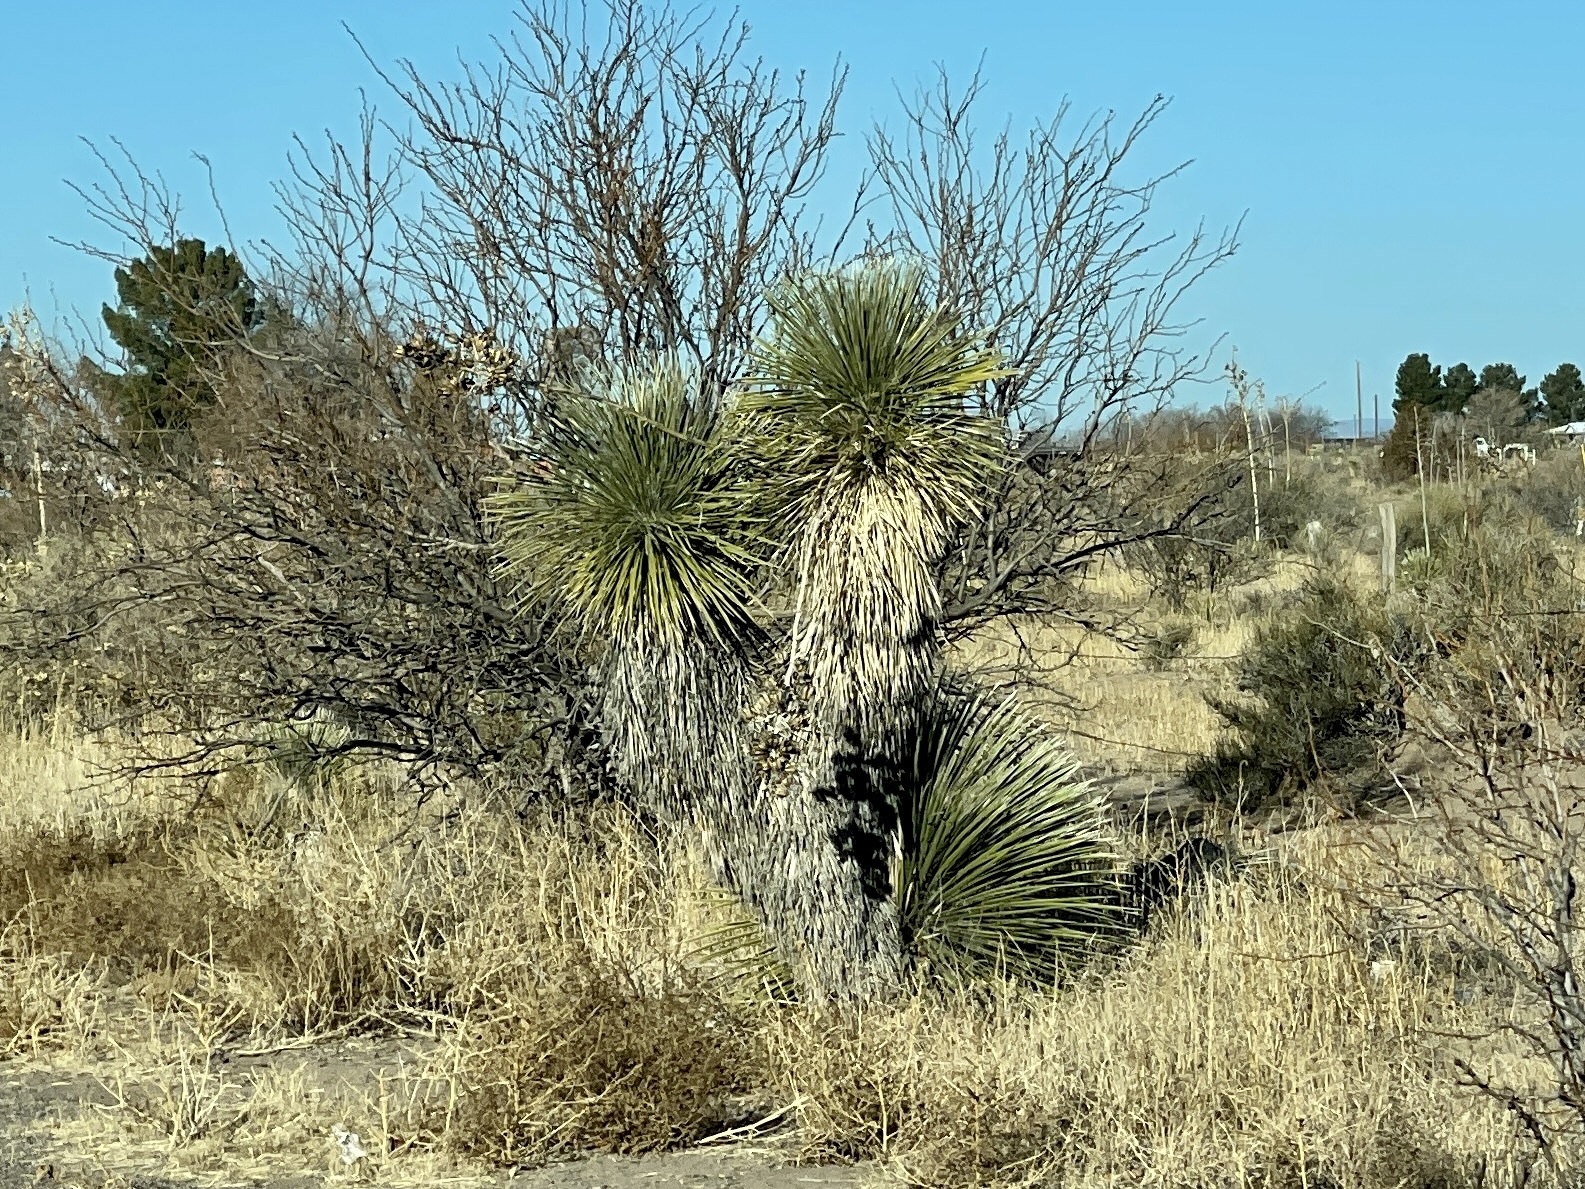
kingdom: Plantae
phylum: Tracheophyta
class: Liliopsida
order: Asparagales
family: Asparagaceae
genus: Yucca
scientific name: Yucca elata
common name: Palmella
